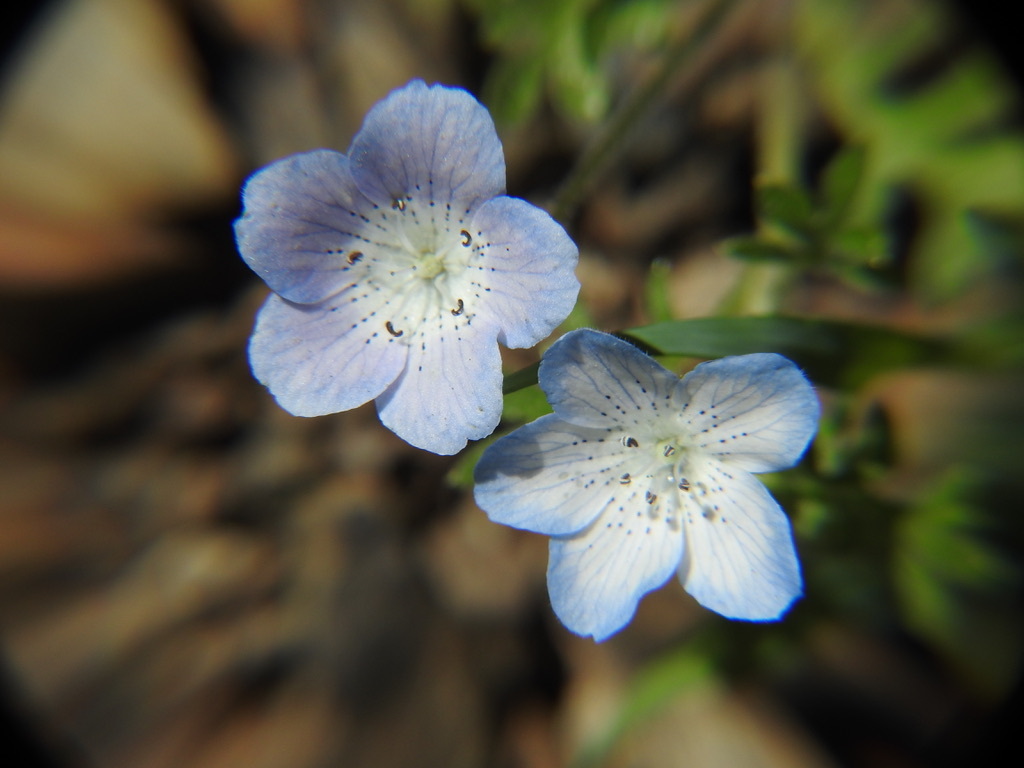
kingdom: Plantae
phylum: Tracheophyta
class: Magnoliopsida
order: Boraginales
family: Hydrophyllaceae
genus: Nemophila
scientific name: Nemophila menziesii
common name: Baby's-blue-eyes
